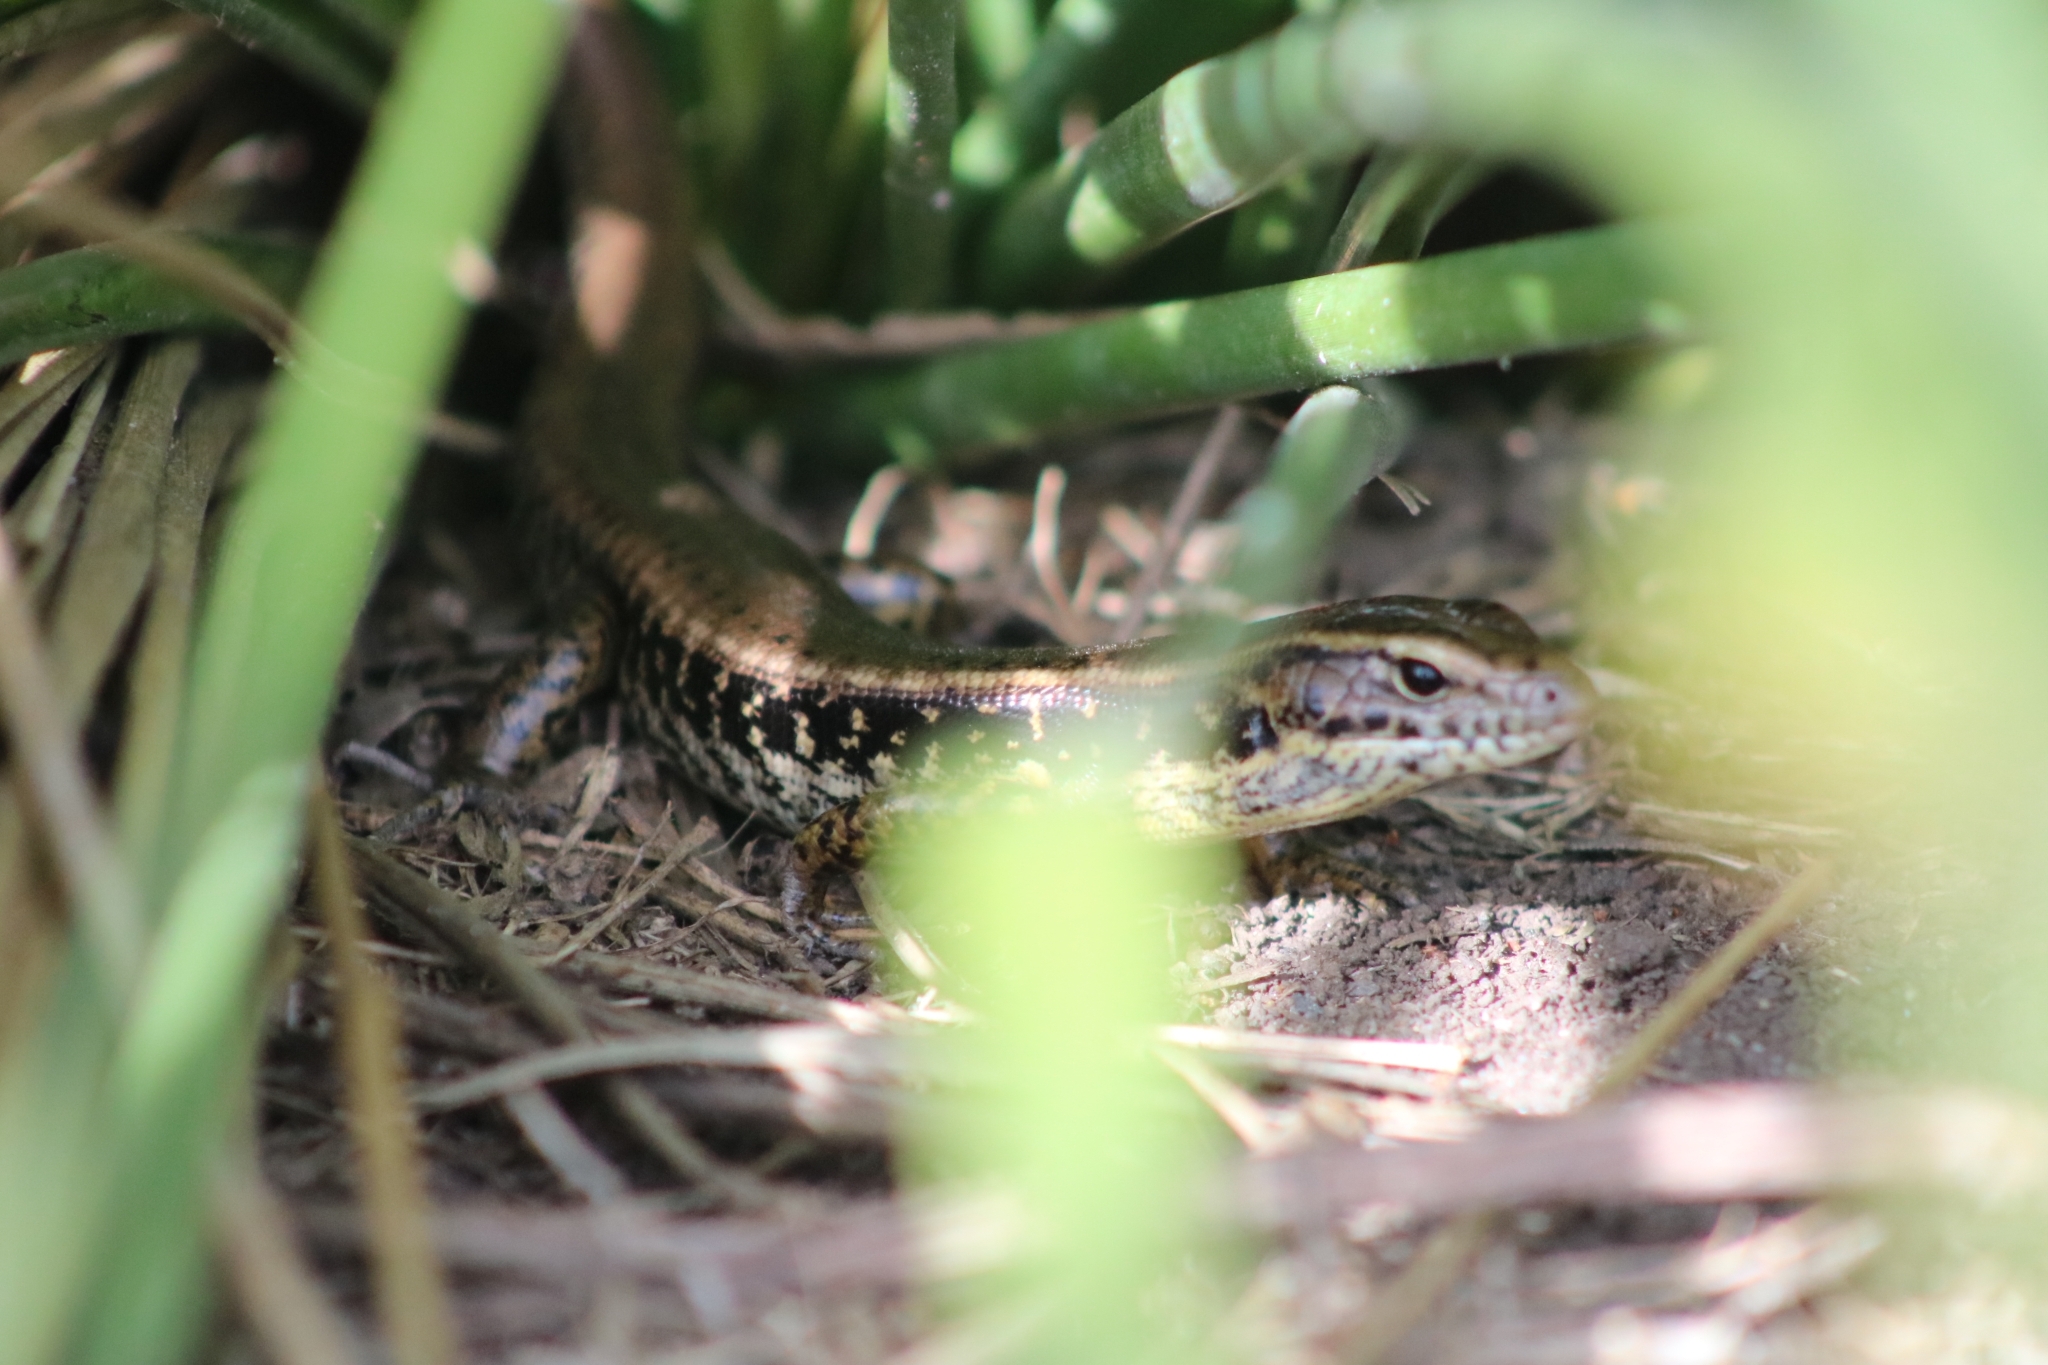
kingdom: Animalia
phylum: Chordata
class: Squamata
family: Scincidae
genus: Eulamprus
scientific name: Eulamprus quoyii
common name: Eastern water skink
